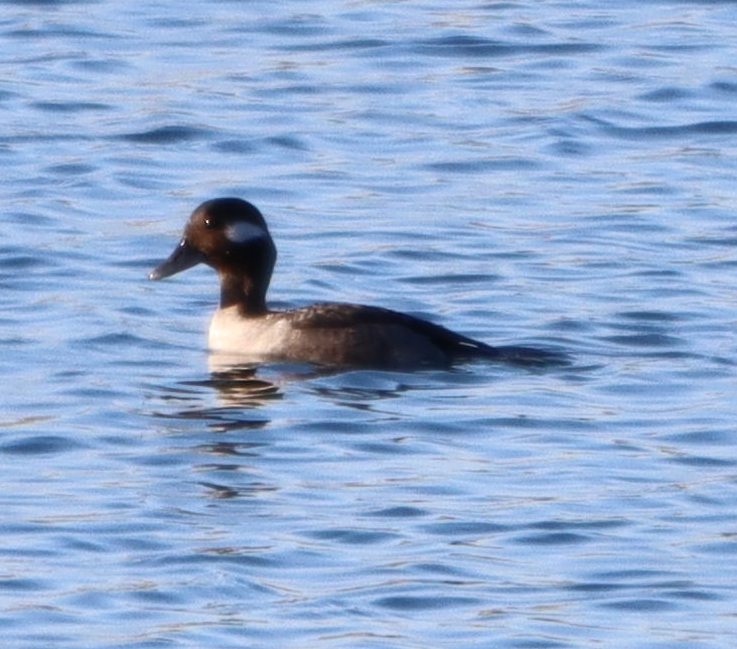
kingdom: Animalia
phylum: Chordata
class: Aves
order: Anseriformes
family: Anatidae
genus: Bucephala
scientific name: Bucephala albeola
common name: Bufflehead
